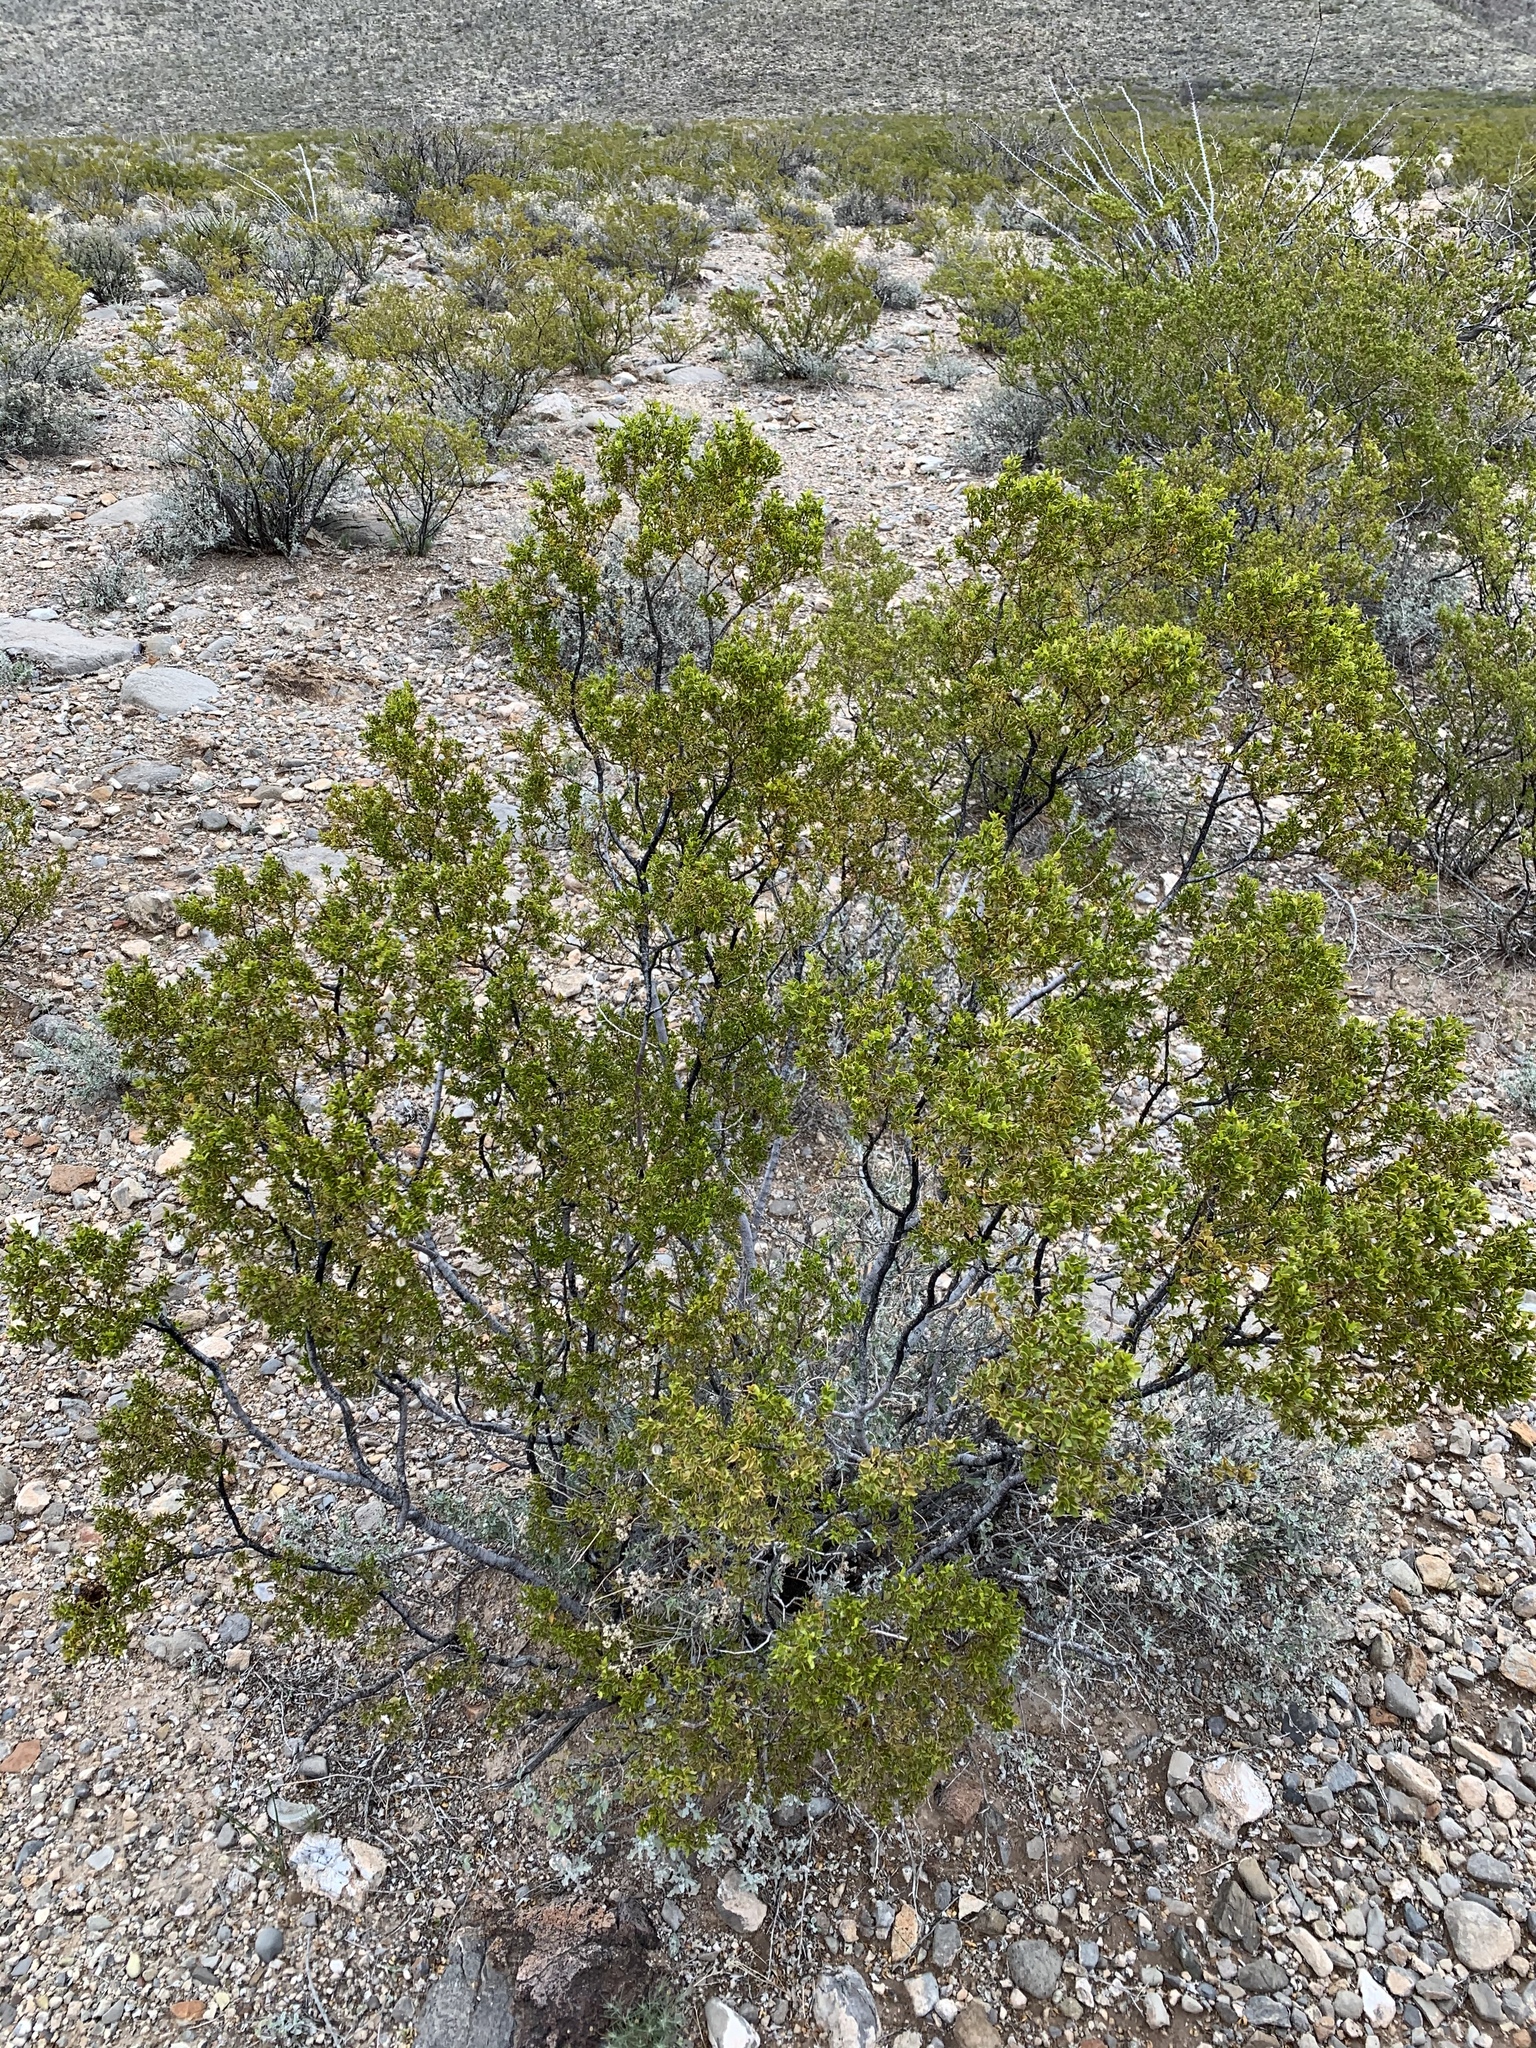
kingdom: Plantae
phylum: Tracheophyta
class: Magnoliopsida
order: Zygophyllales
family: Zygophyllaceae
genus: Larrea
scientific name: Larrea tridentata
